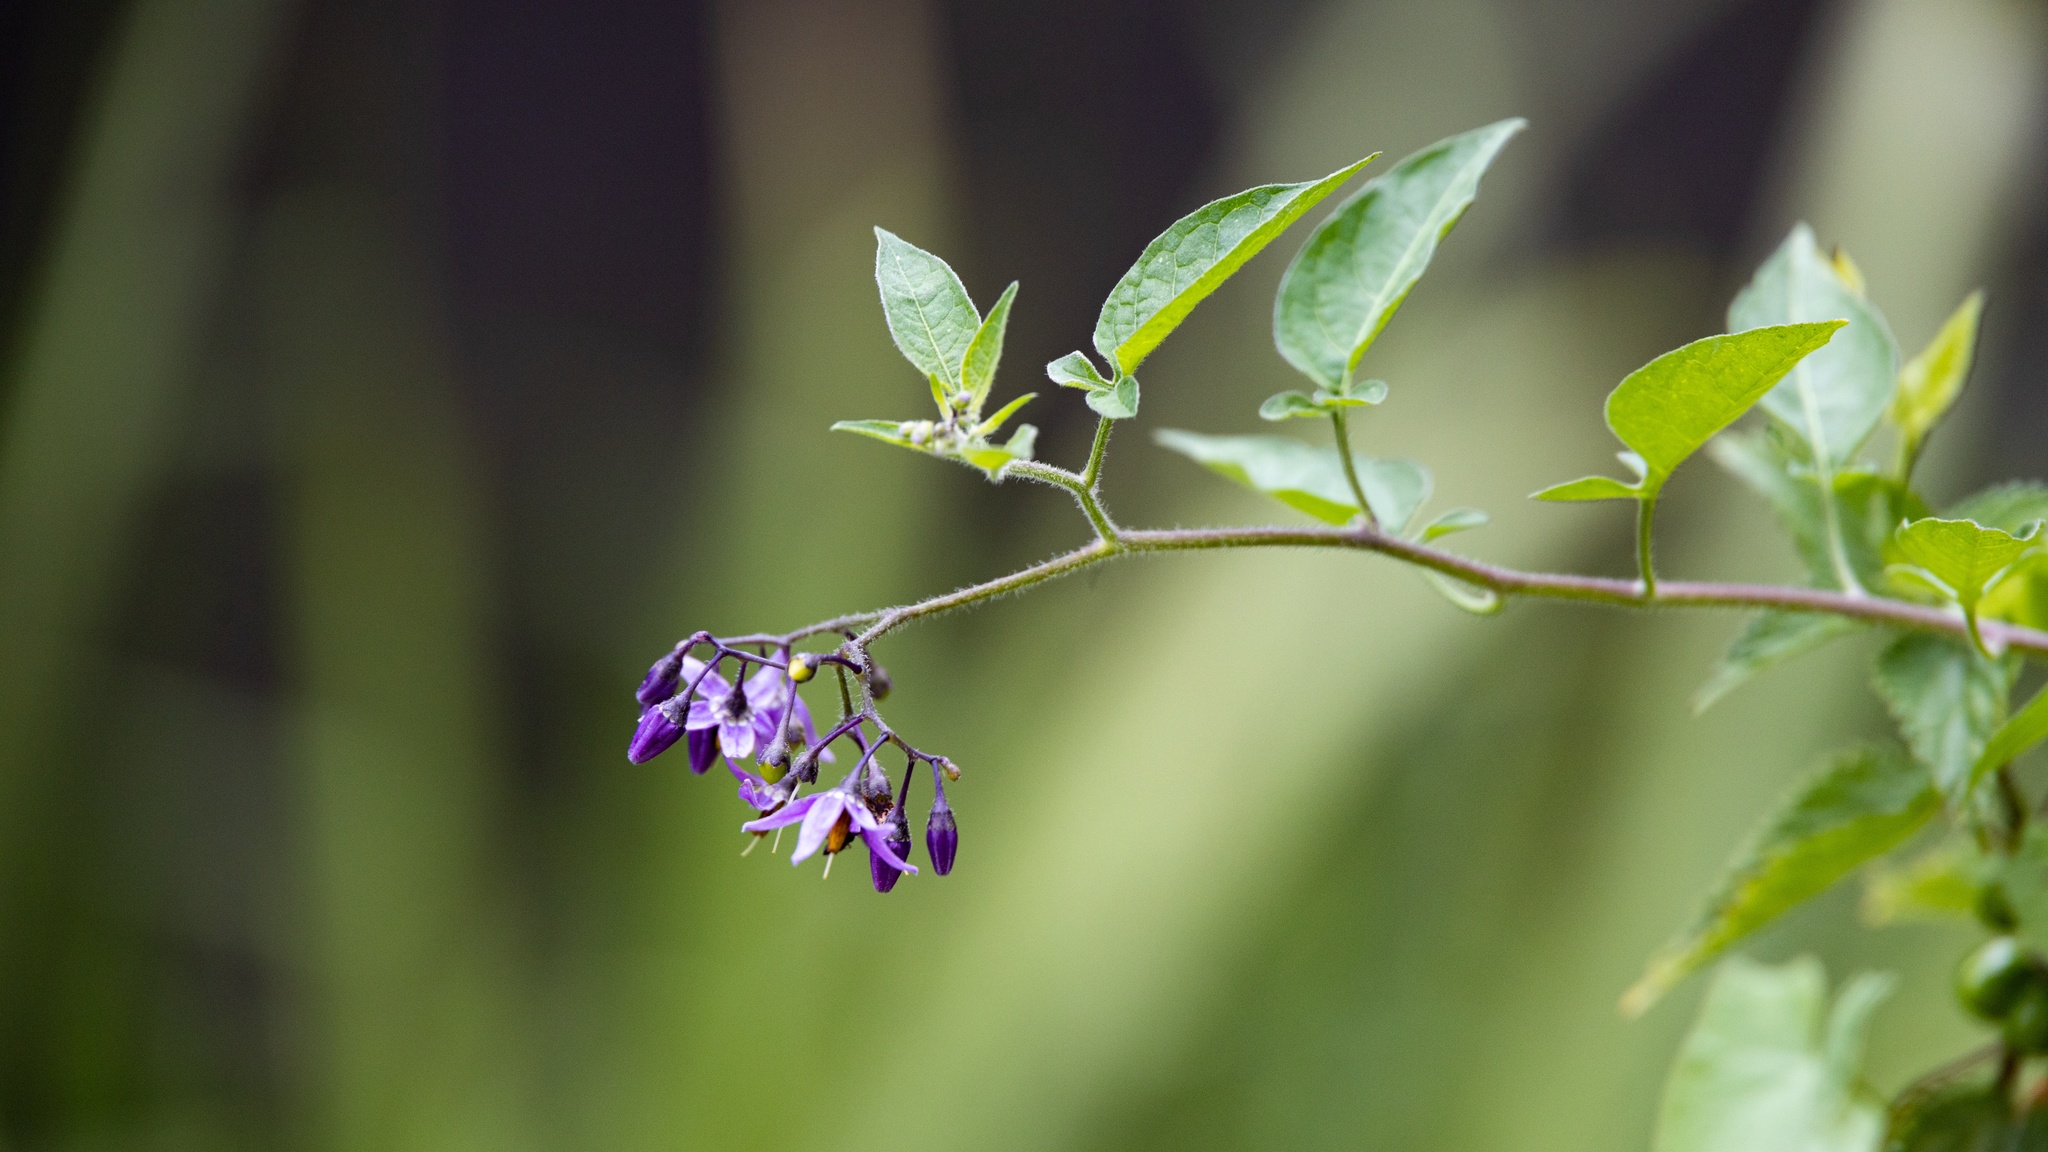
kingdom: Plantae
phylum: Tracheophyta
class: Magnoliopsida
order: Solanales
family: Solanaceae
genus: Solanum
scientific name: Solanum dulcamara
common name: Climbing nightshade
